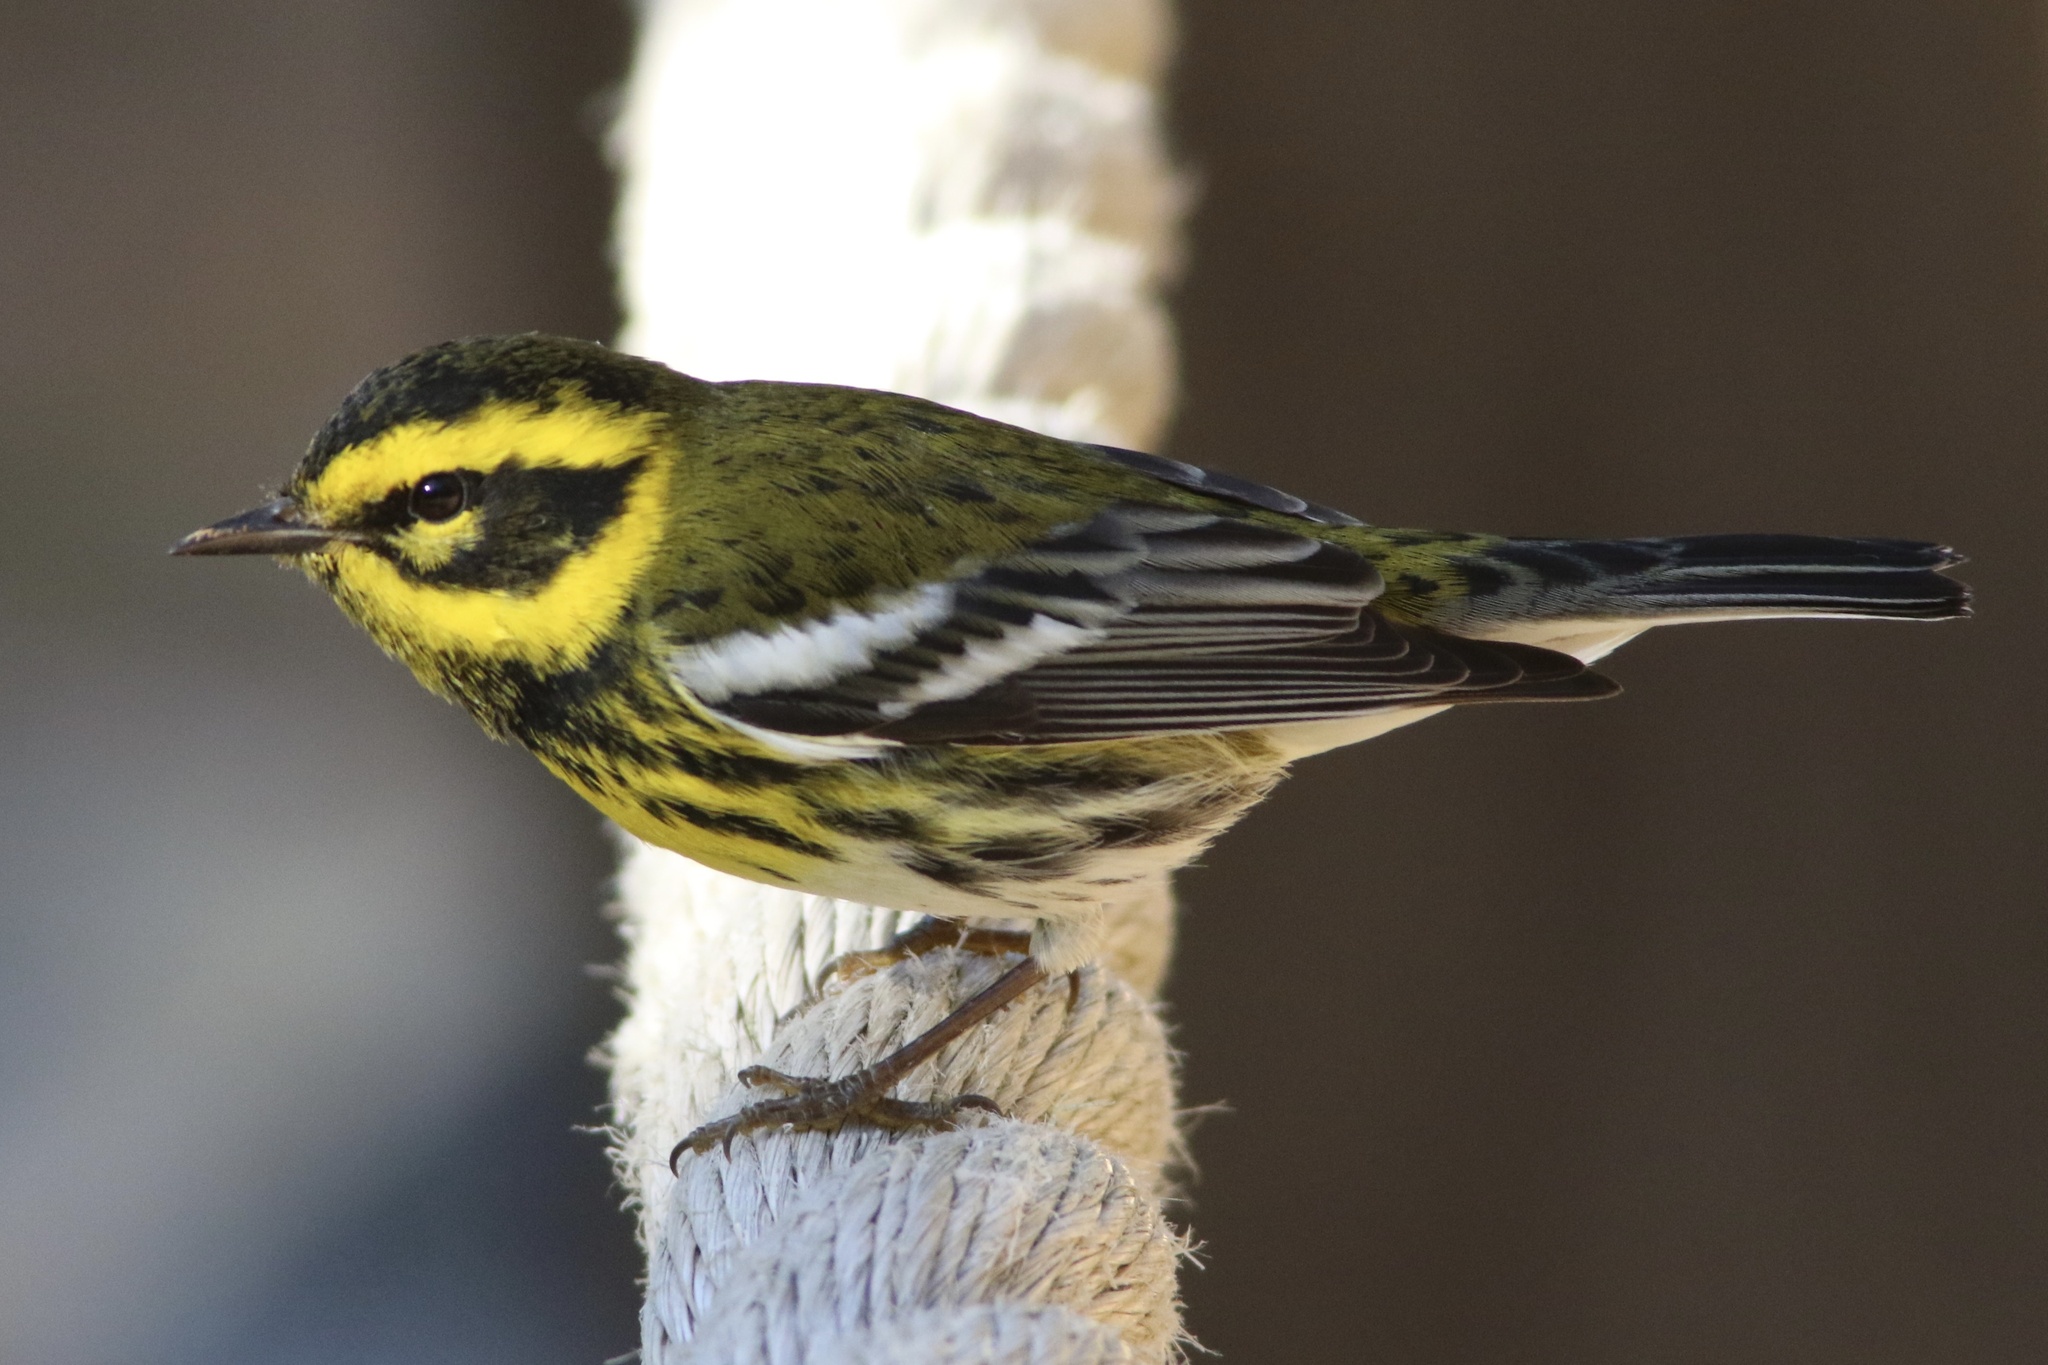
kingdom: Animalia
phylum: Chordata
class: Aves
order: Passeriformes
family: Parulidae
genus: Setophaga
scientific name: Setophaga townsendi
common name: Townsend's warbler
